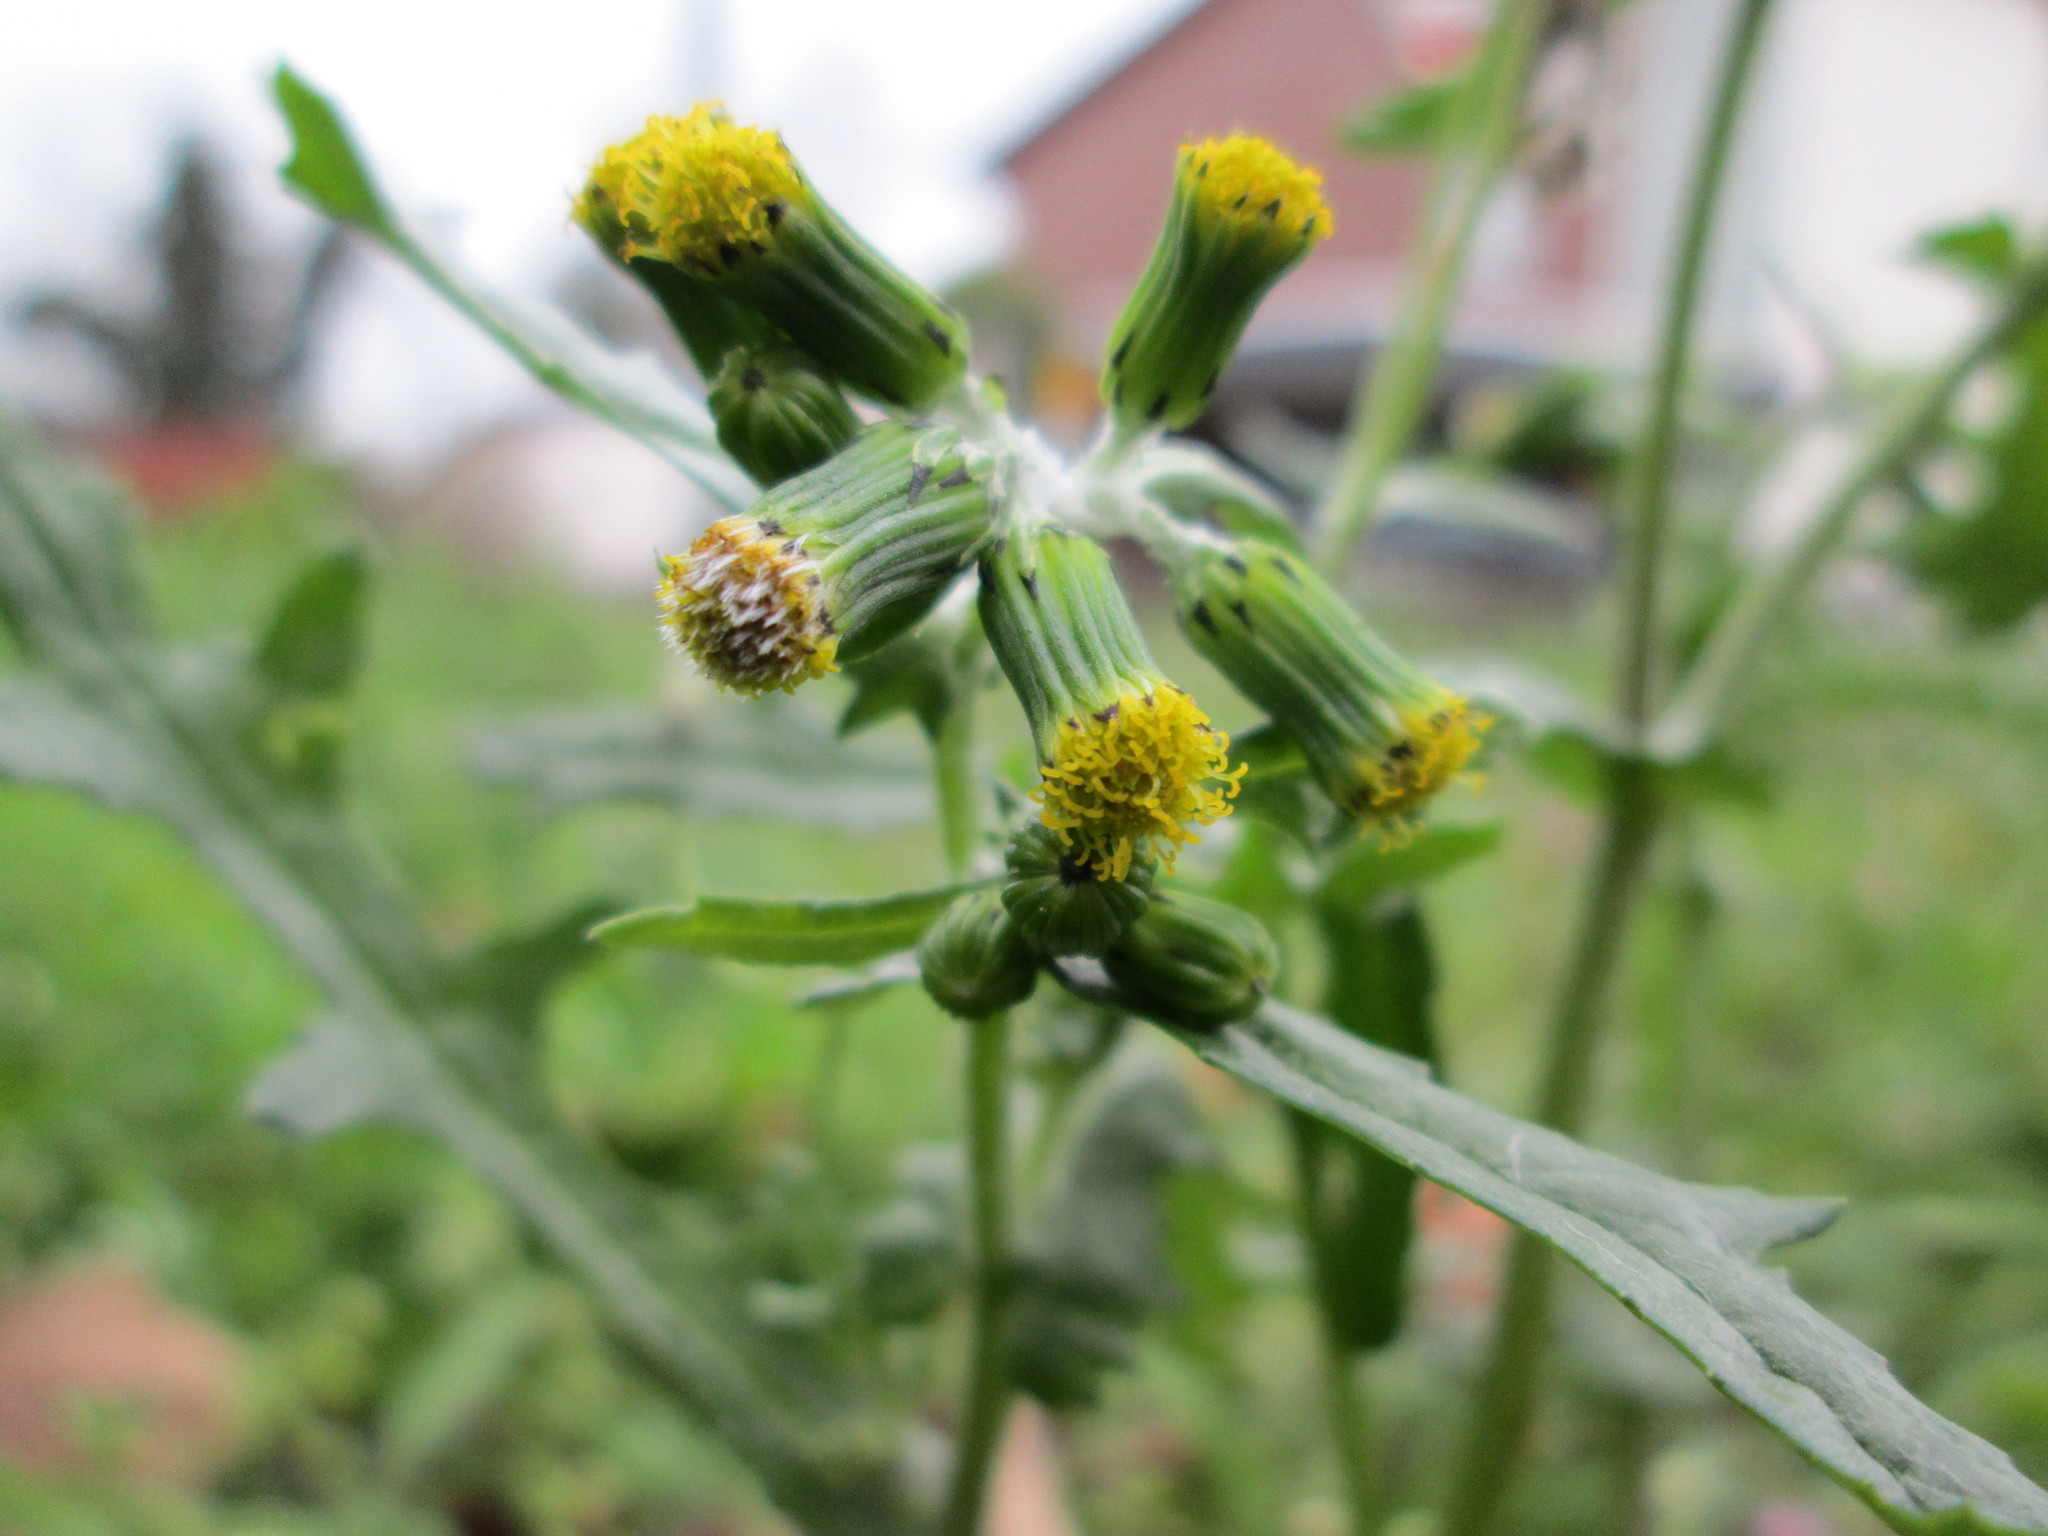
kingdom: Plantae
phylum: Tracheophyta
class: Magnoliopsida
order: Asterales
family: Asteraceae
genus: Senecio
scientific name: Senecio vulgaris
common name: Old-man-in-the-spring
